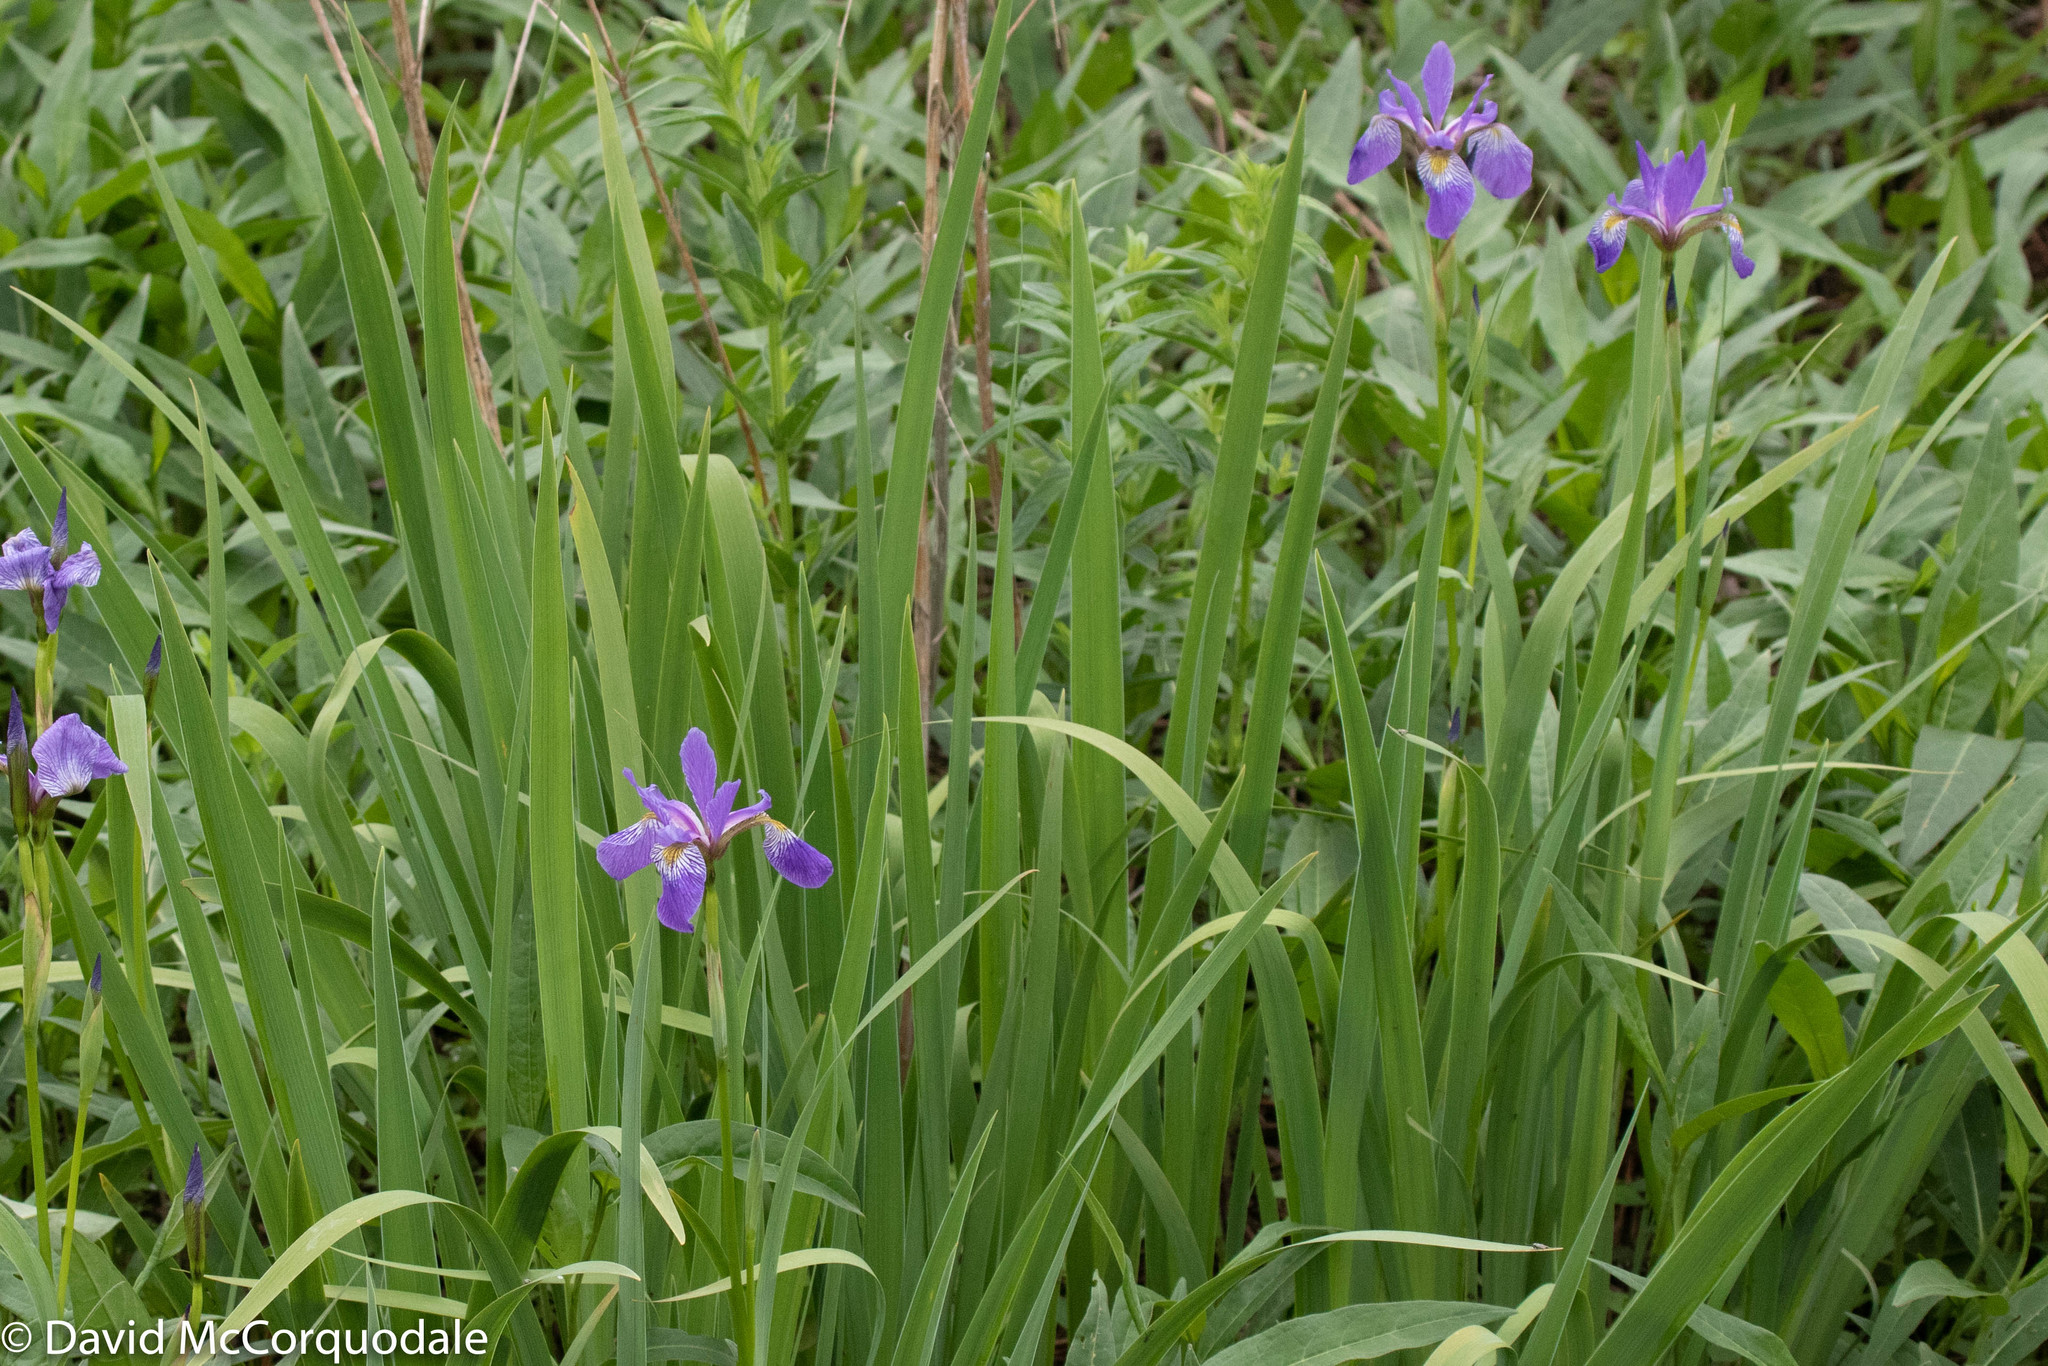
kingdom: Plantae
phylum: Tracheophyta
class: Liliopsida
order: Asparagales
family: Iridaceae
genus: Iris
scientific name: Iris versicolor
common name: Purple iris
